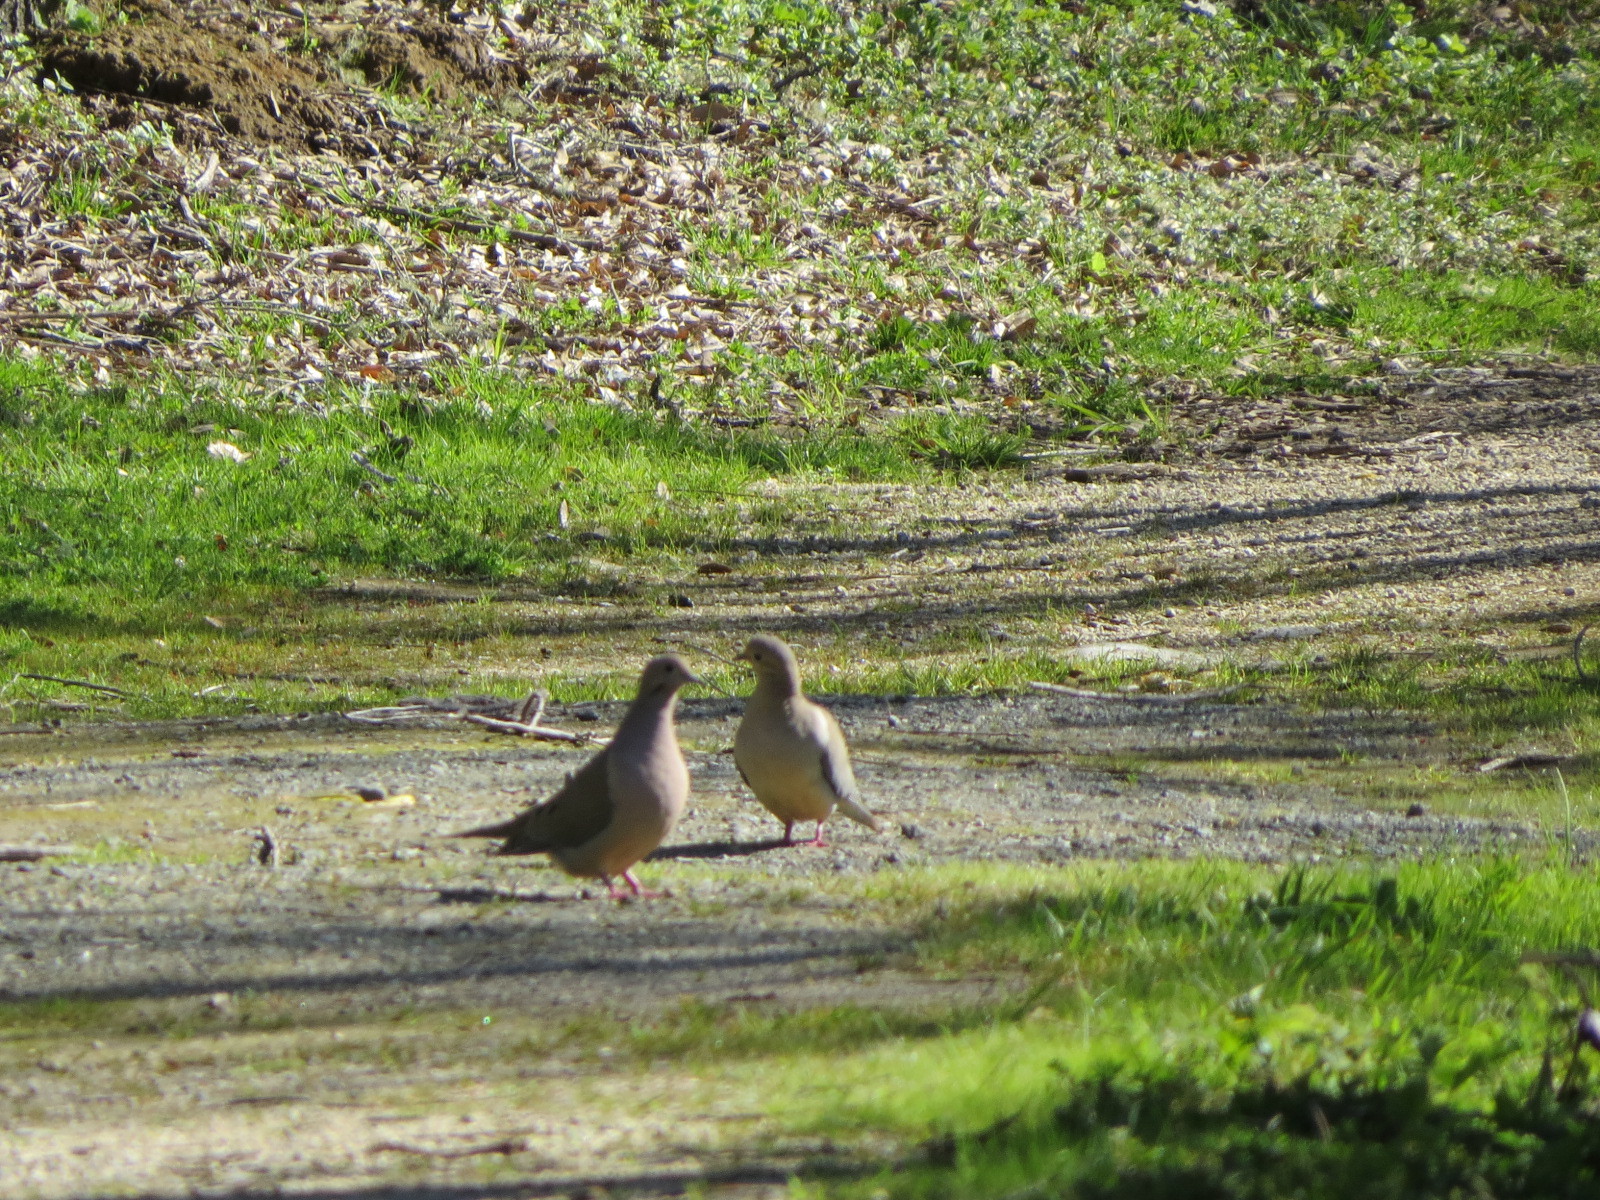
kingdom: Animalia
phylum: Chordata
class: Aves
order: Columbiformes
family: Columbidae
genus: Zenaida
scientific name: Zenaida macroura
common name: Mourning dove
